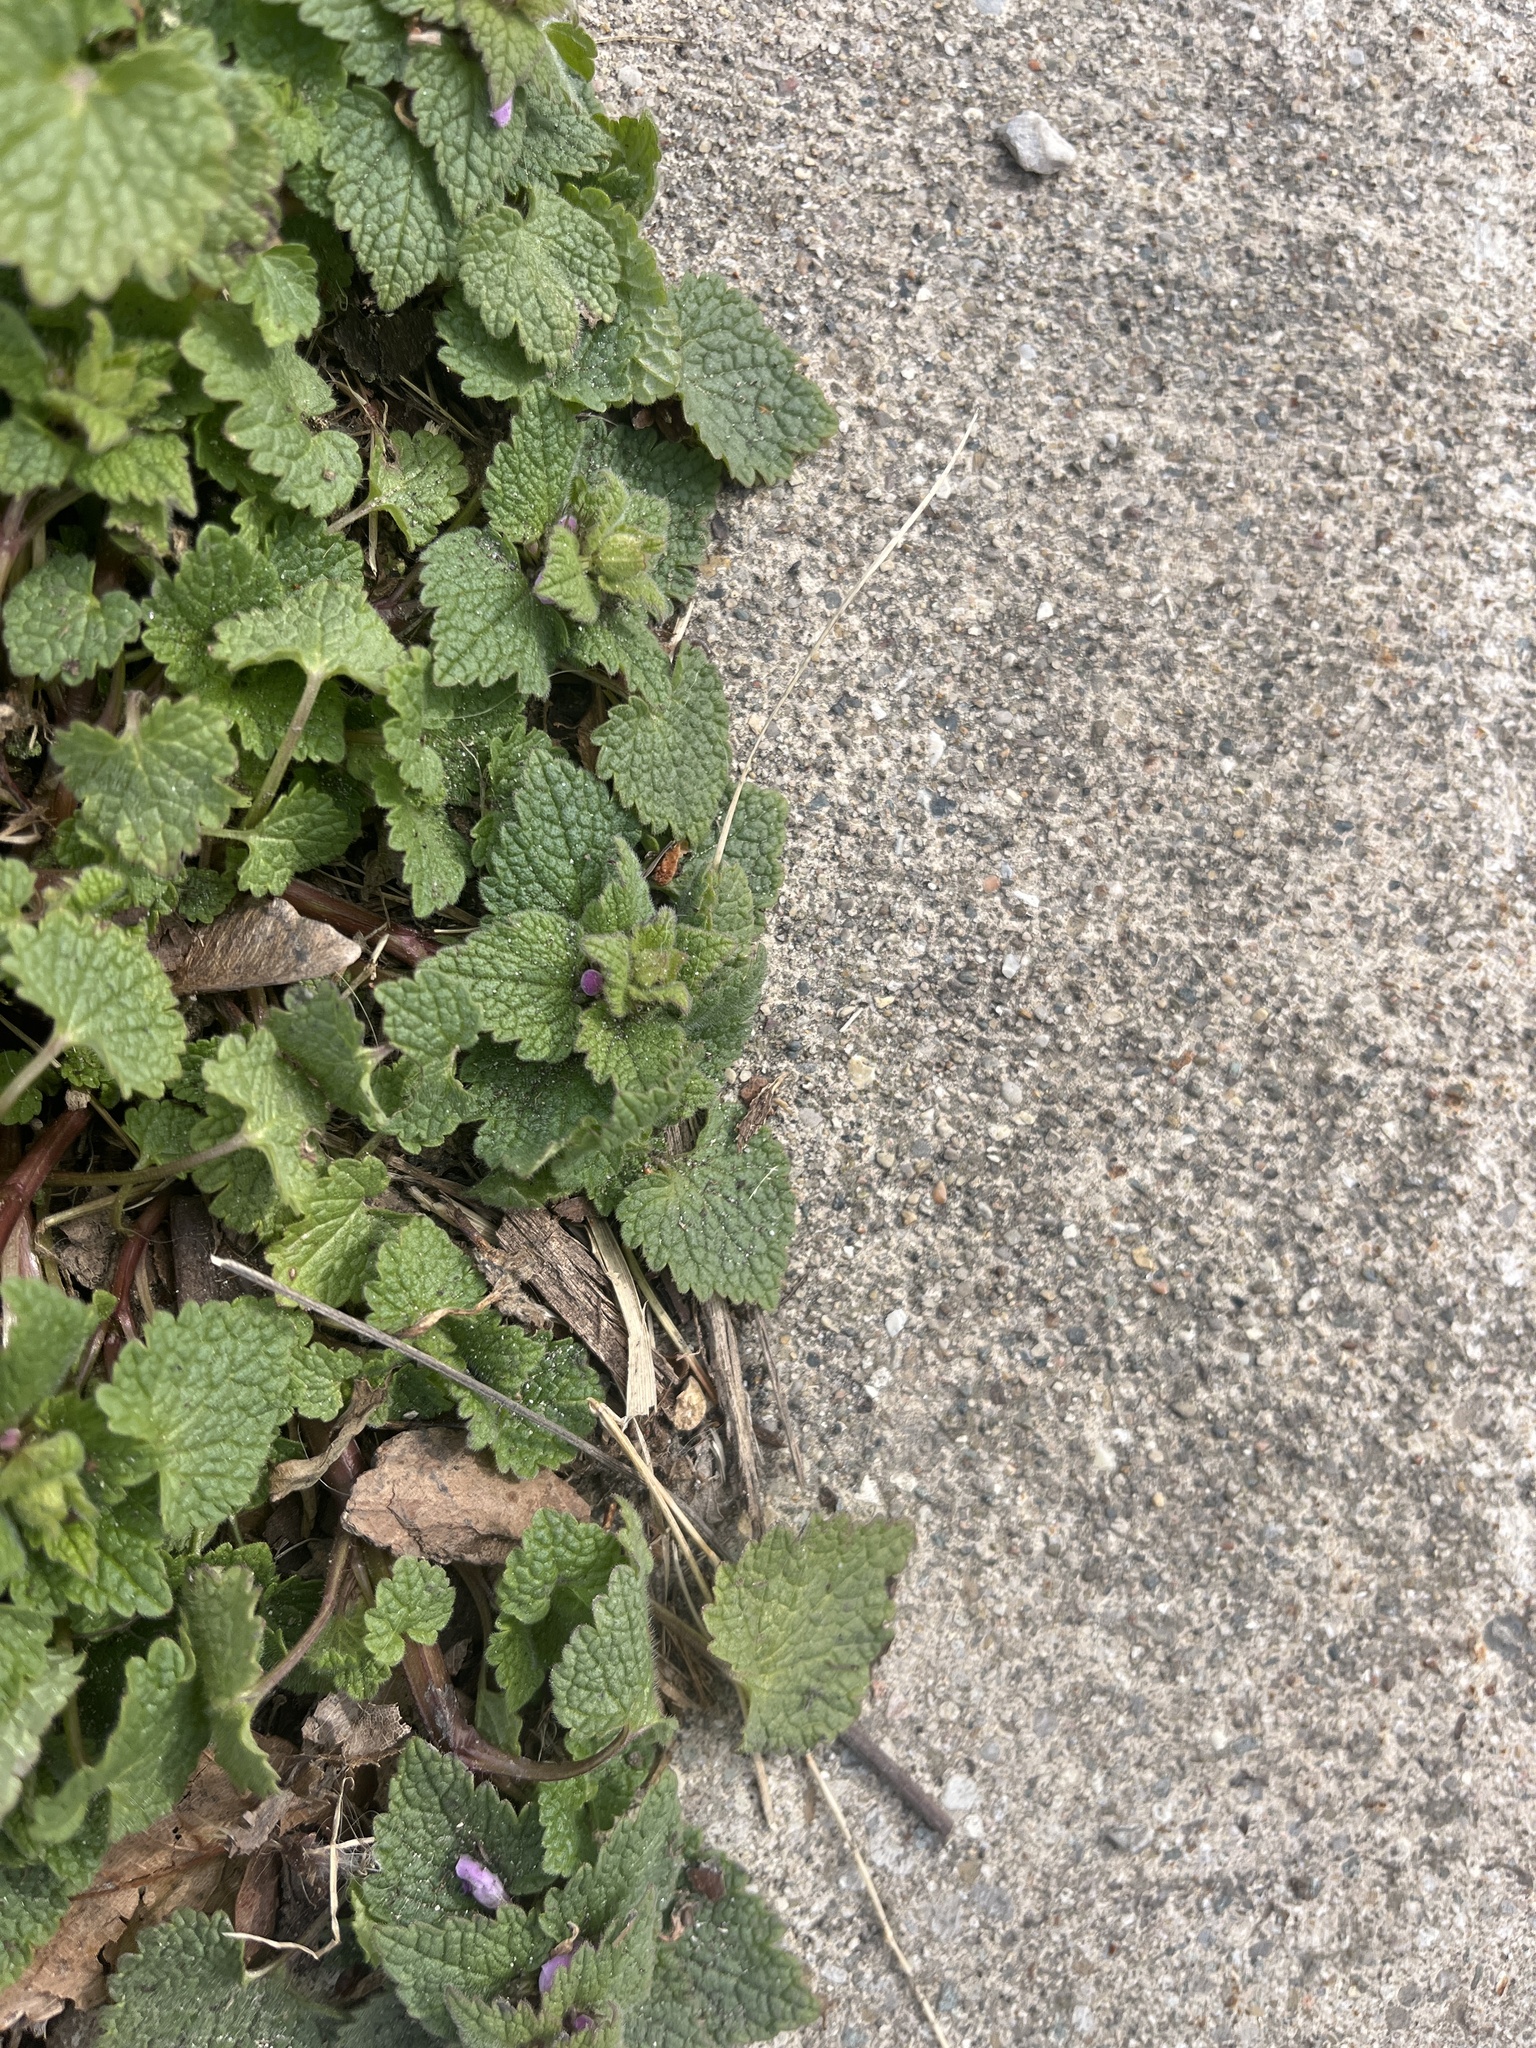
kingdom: Plantae
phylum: Tracheophyta
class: Magnoliopsida
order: Lamiales
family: Lamiaceae
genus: Lamium
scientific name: Lamium purpureum
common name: Red dead-nettle
